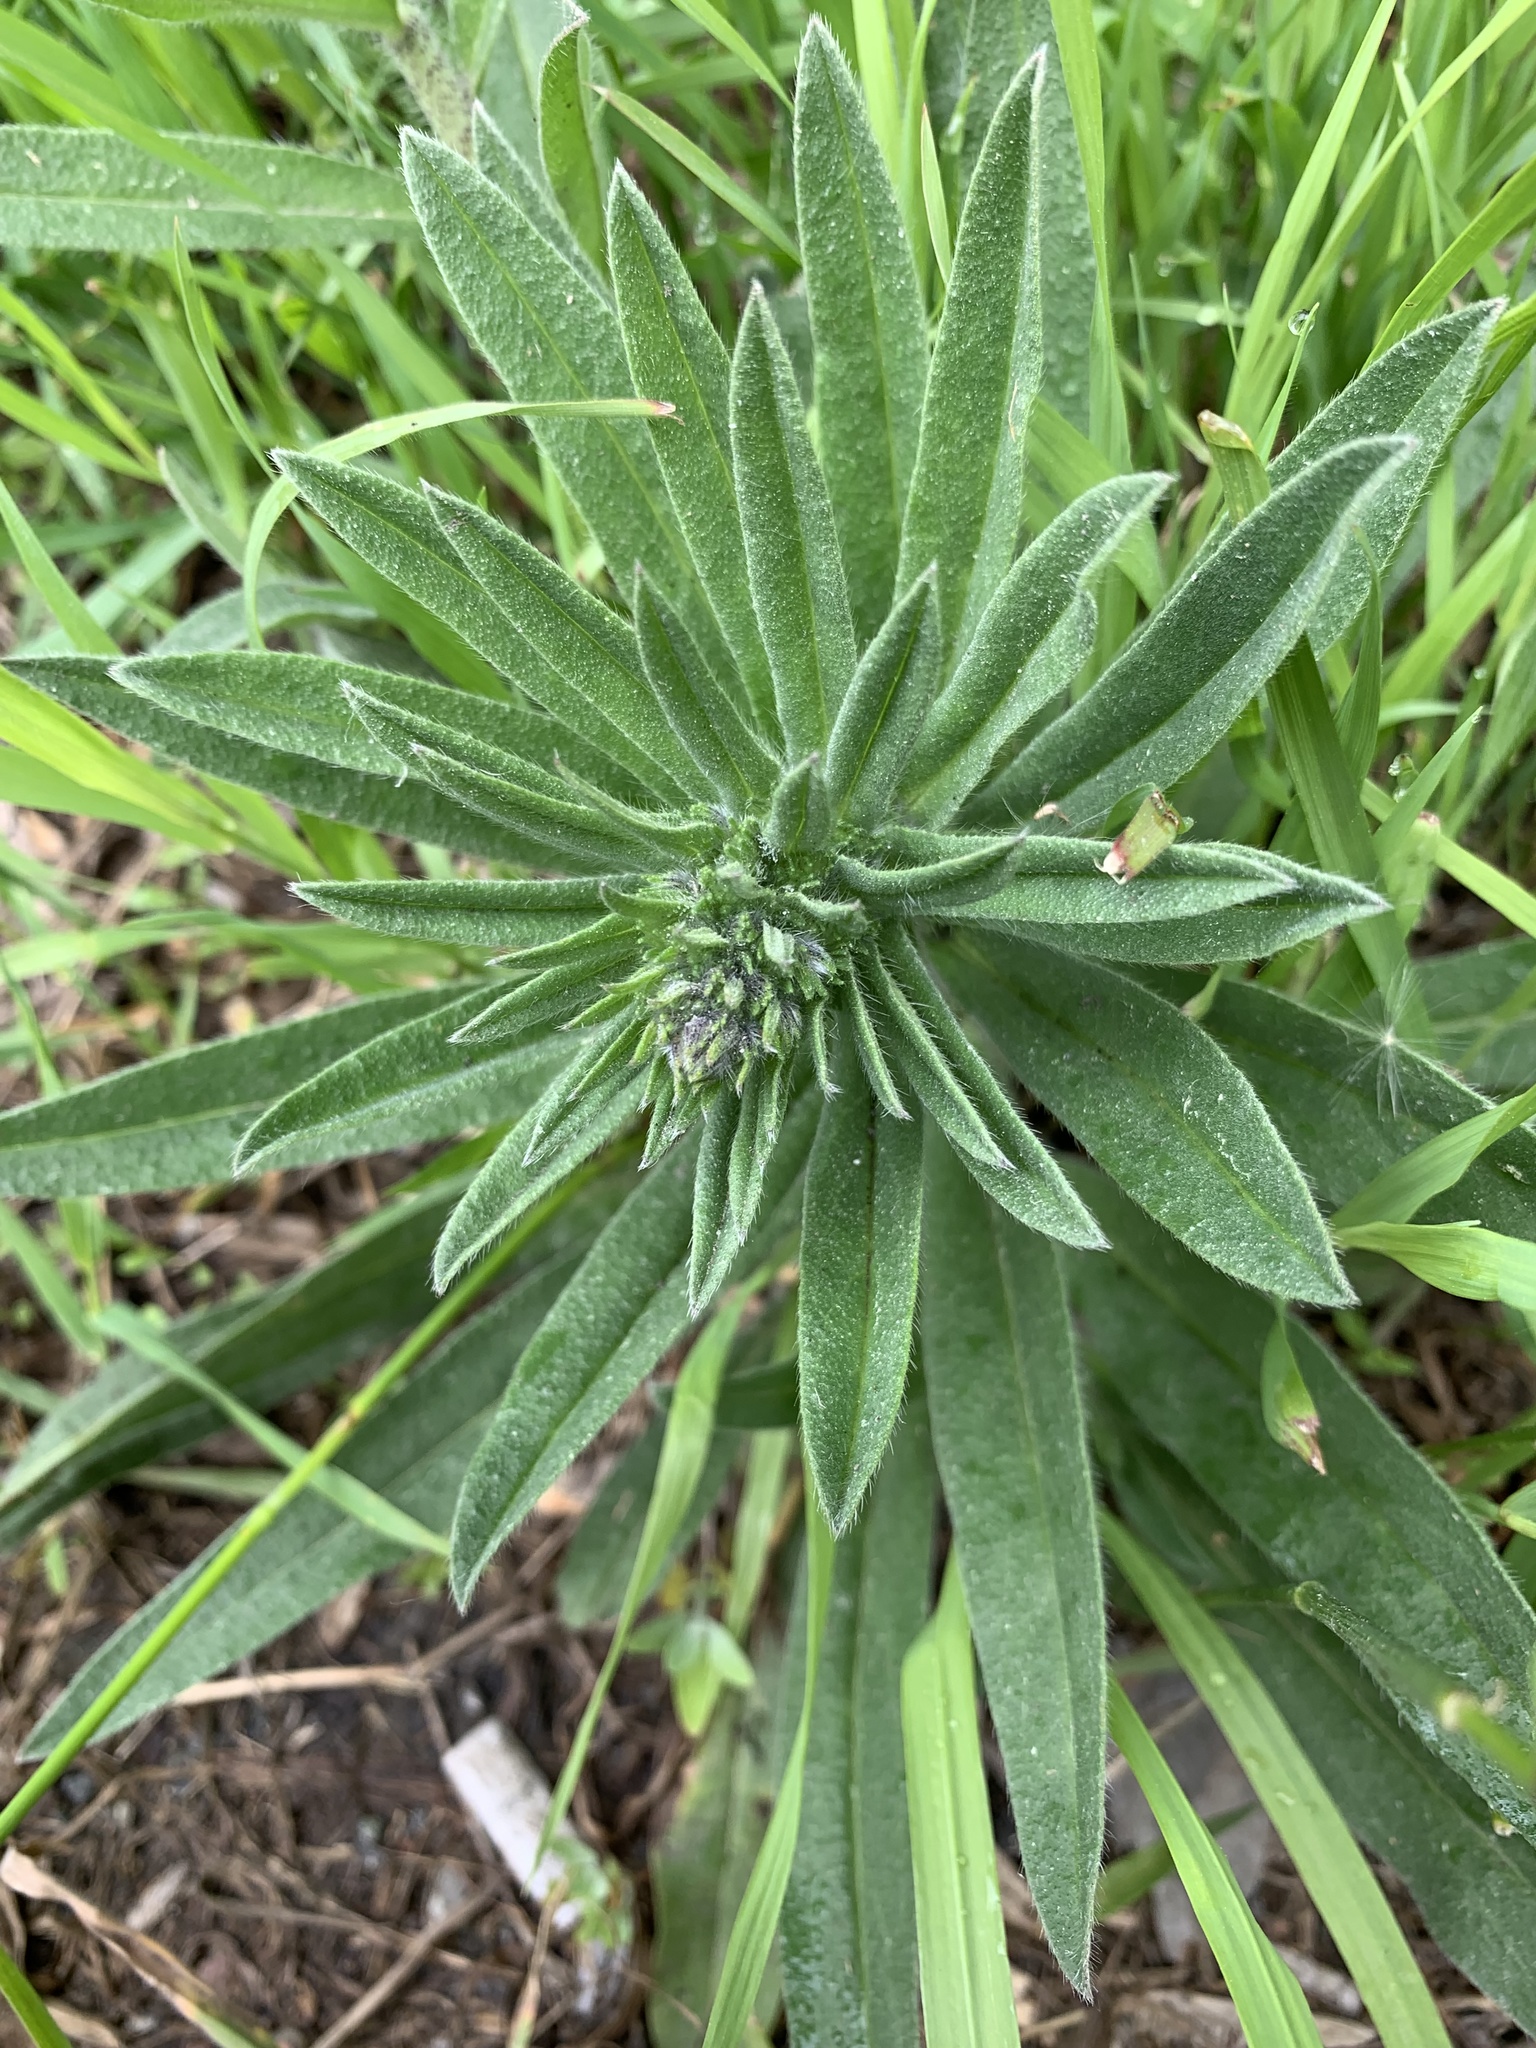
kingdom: Plantae
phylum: Tracheophyta
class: Magnoliopsida
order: Boraginales
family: Boraginaceae
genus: Echium
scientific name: Echium vulgare
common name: Common viper's bugloss
